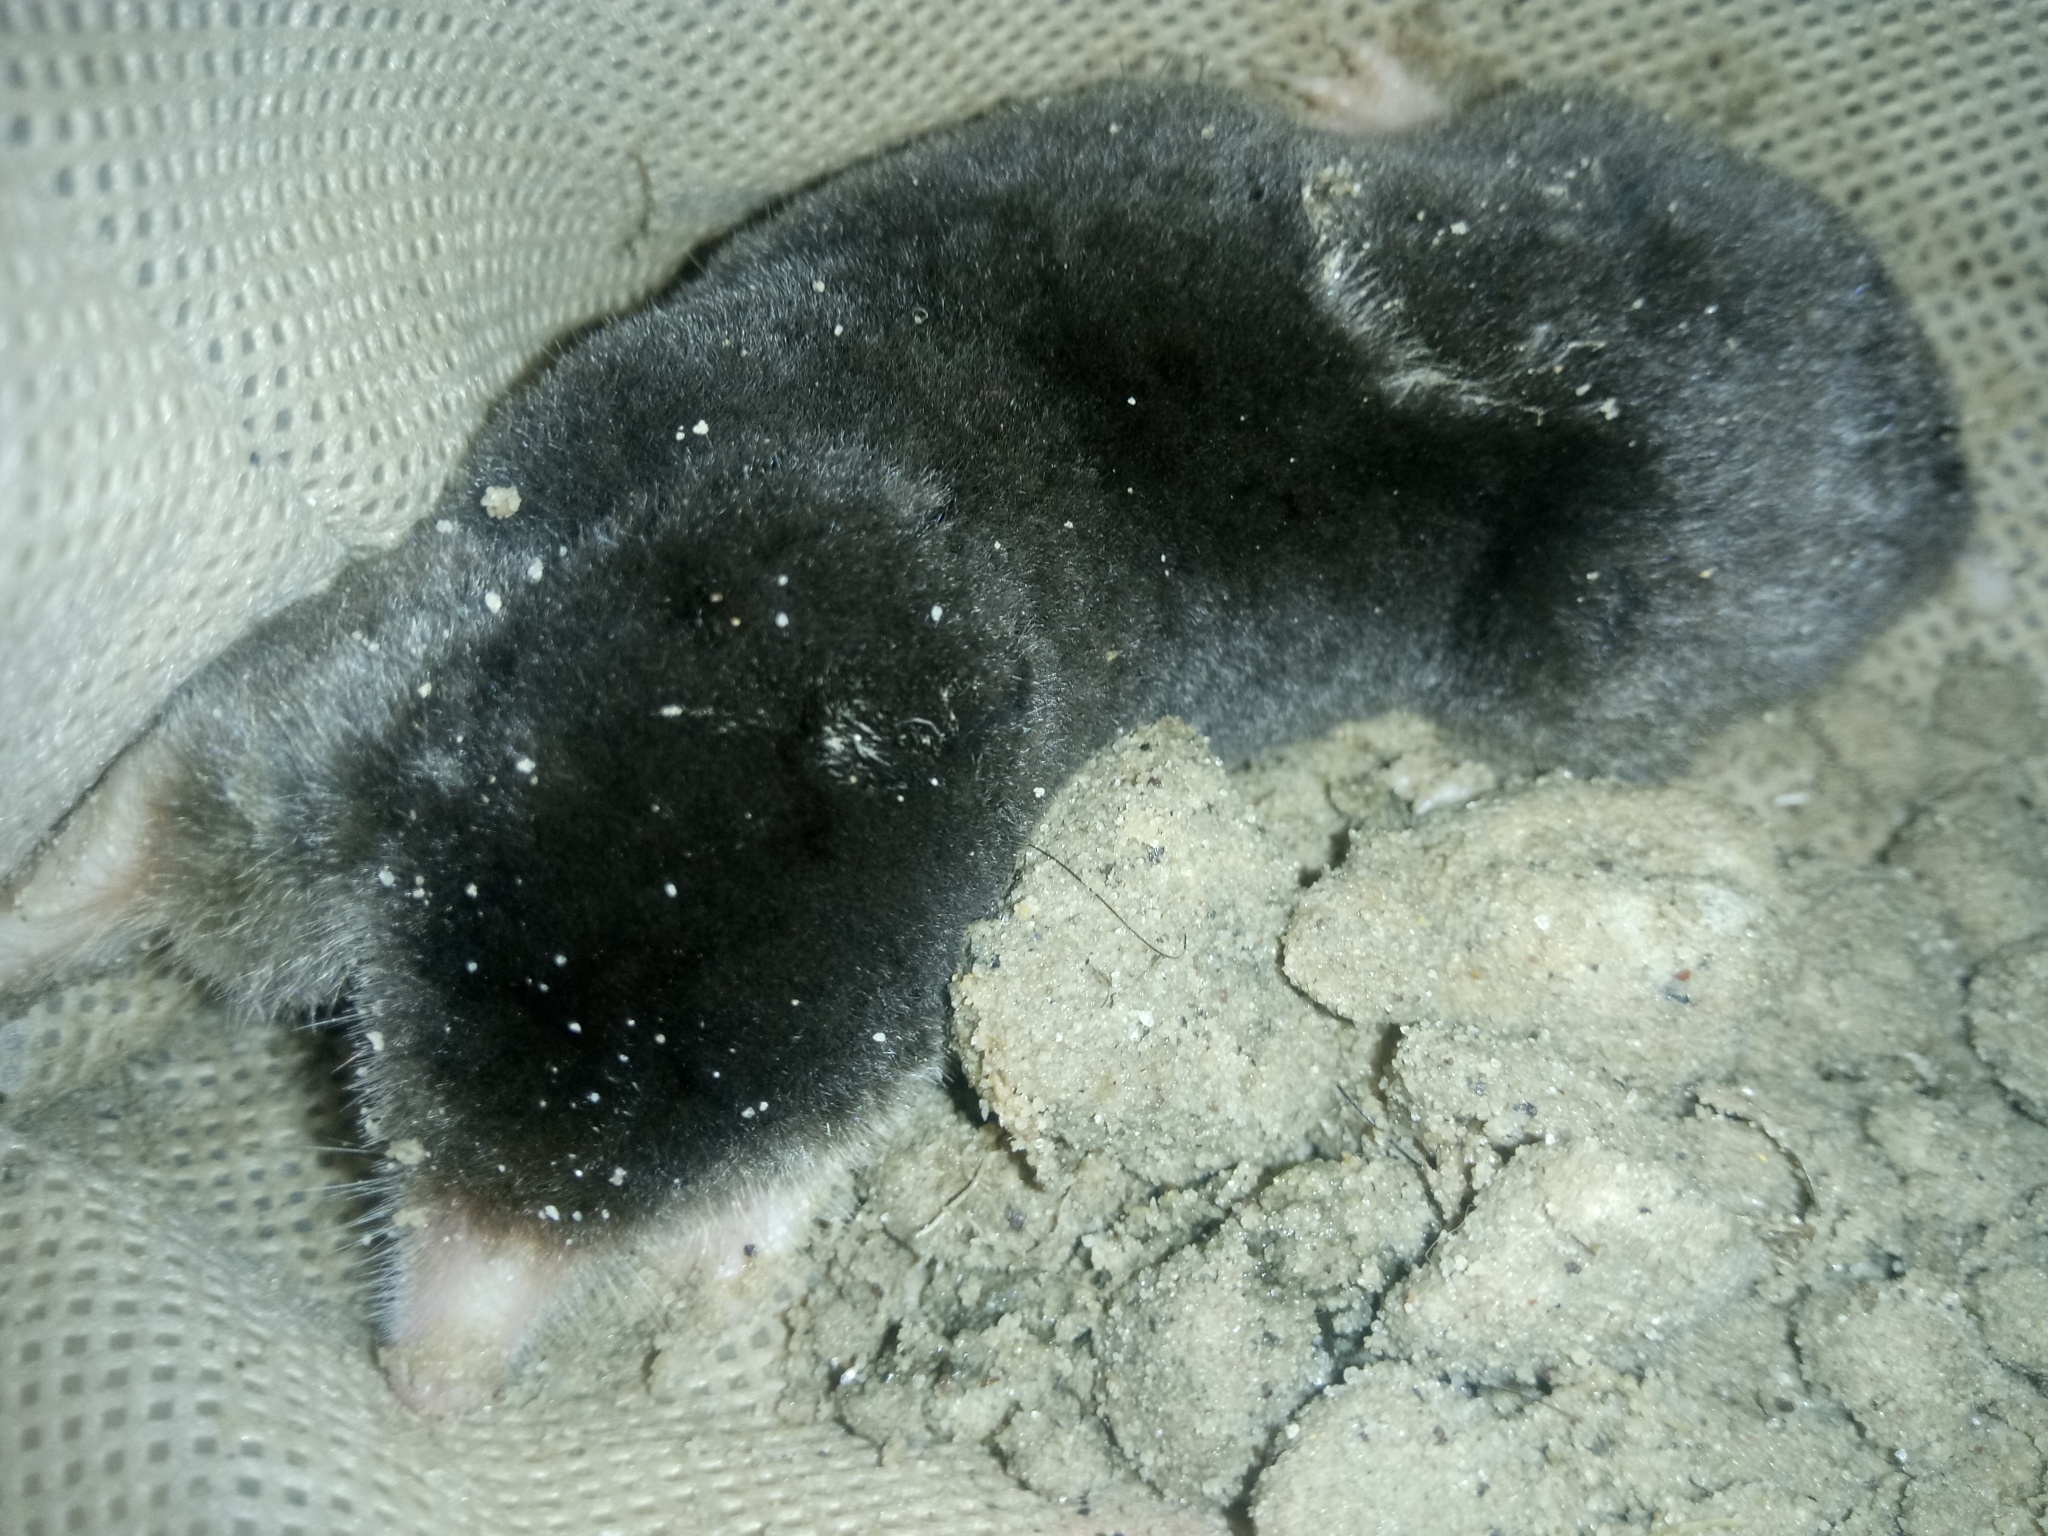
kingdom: Animalia
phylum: Chordata
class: Mammalia
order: Soricomorpha
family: Talpidae
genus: Parascaptor
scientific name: Parascaptor leucura
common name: White-tailed mole
